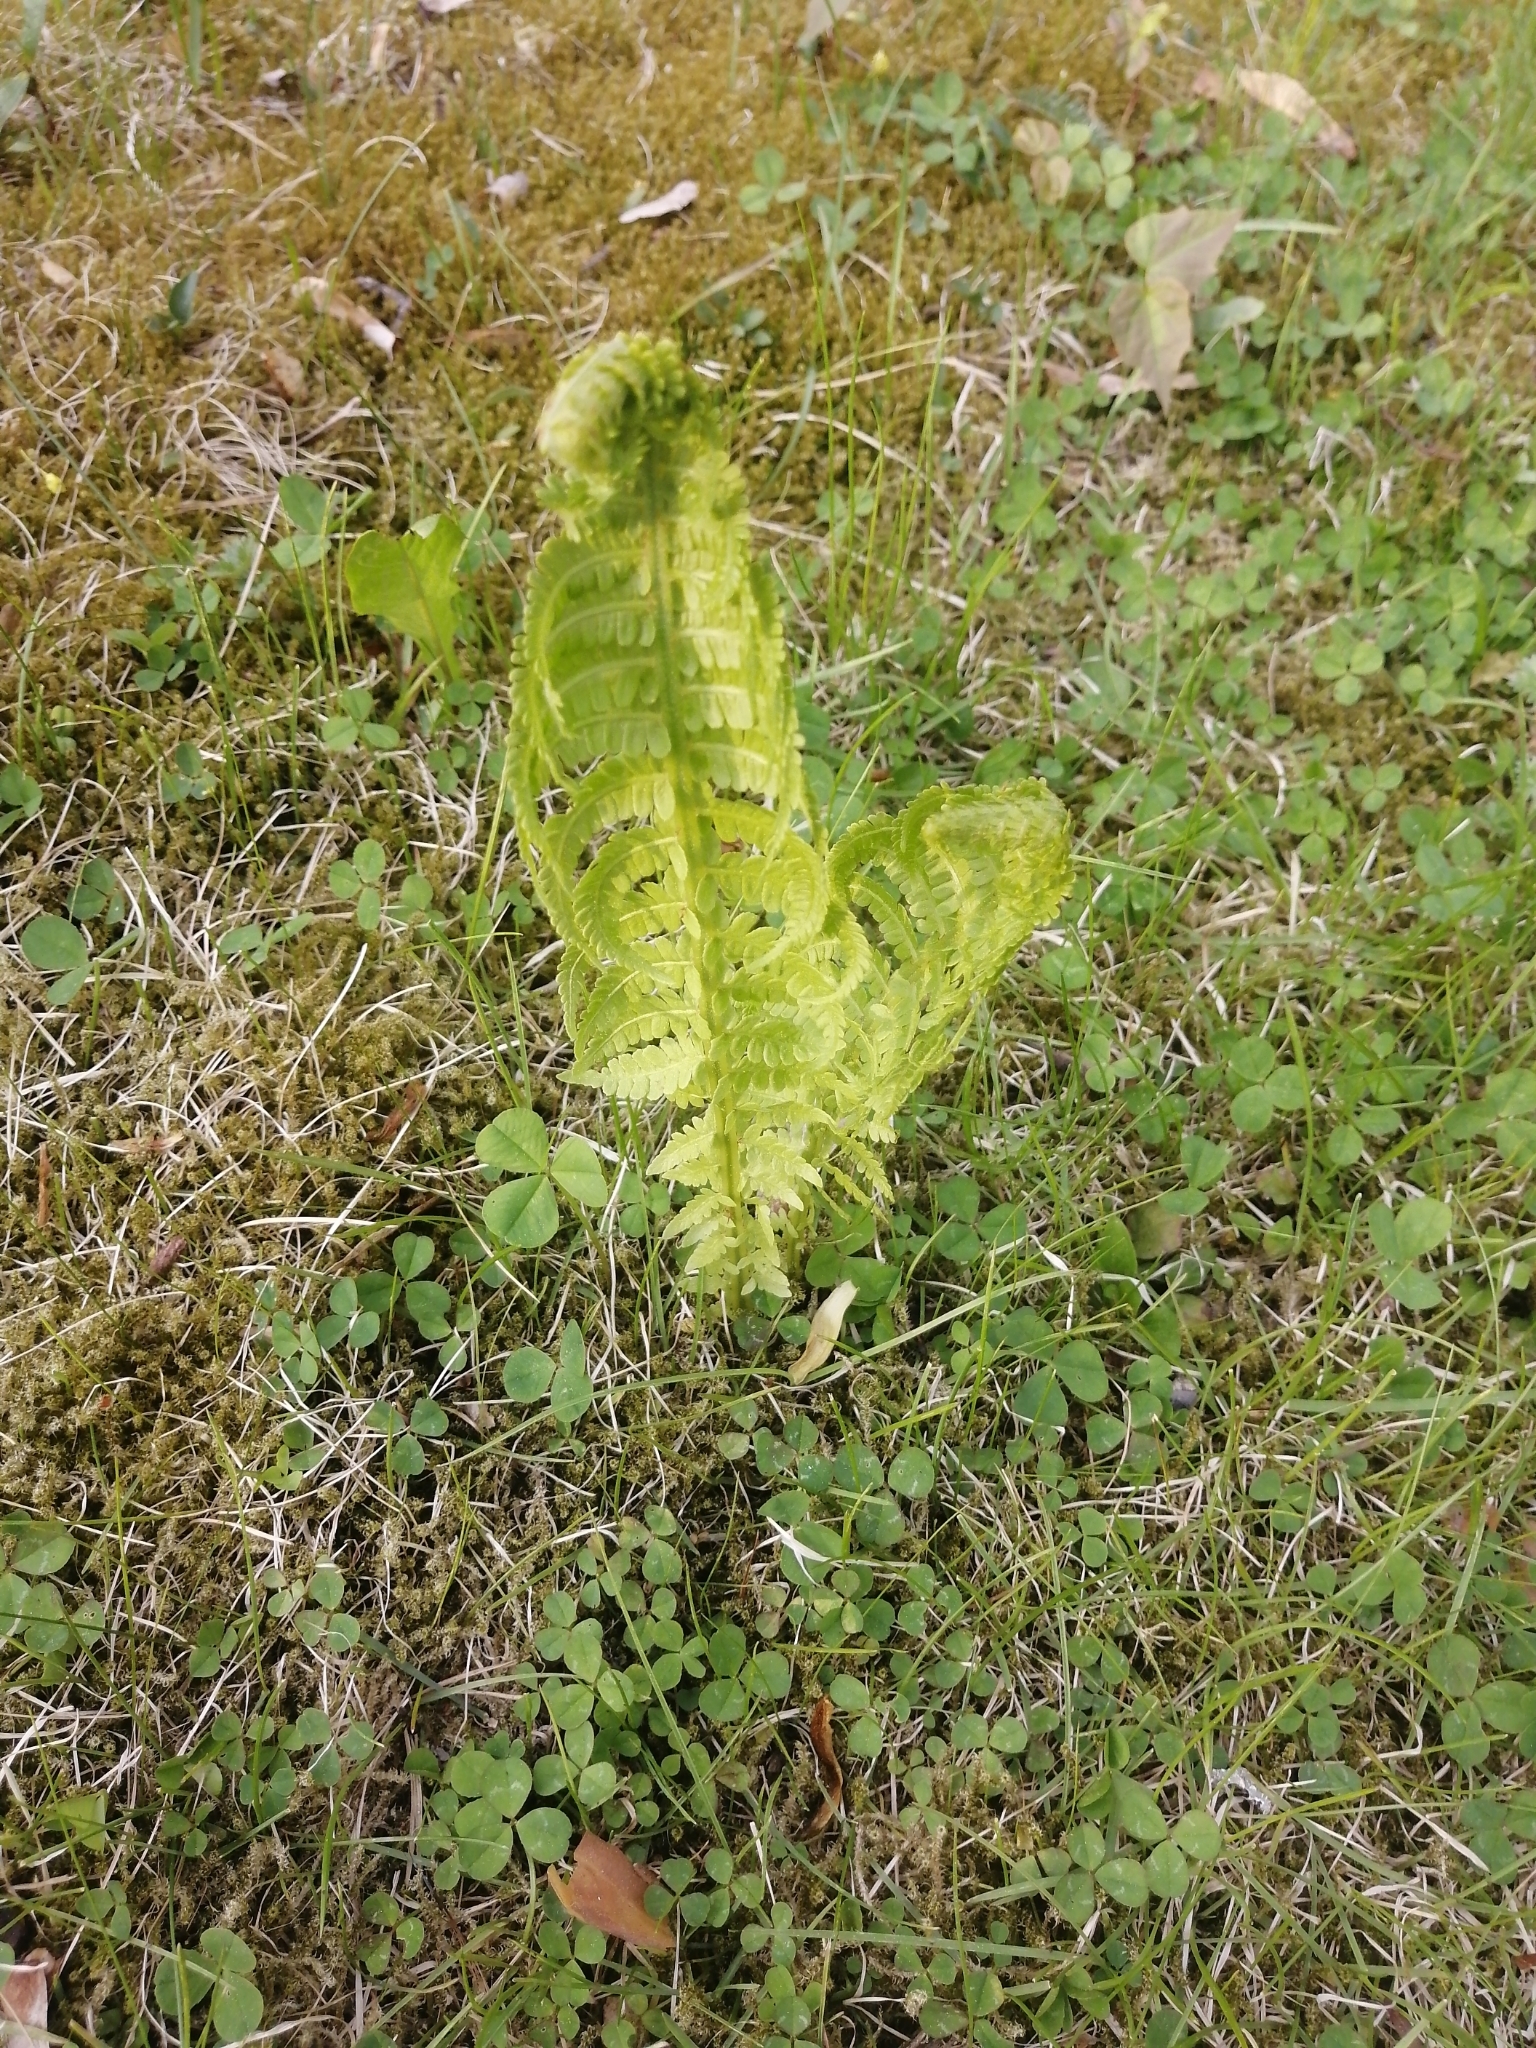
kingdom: Plantae
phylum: Tracheophyta
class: Polypodiopsida
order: Polypodiales
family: Onocleaceae
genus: Matteuccia
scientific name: Matteuccia struthiopteris
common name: Ostrich fern
